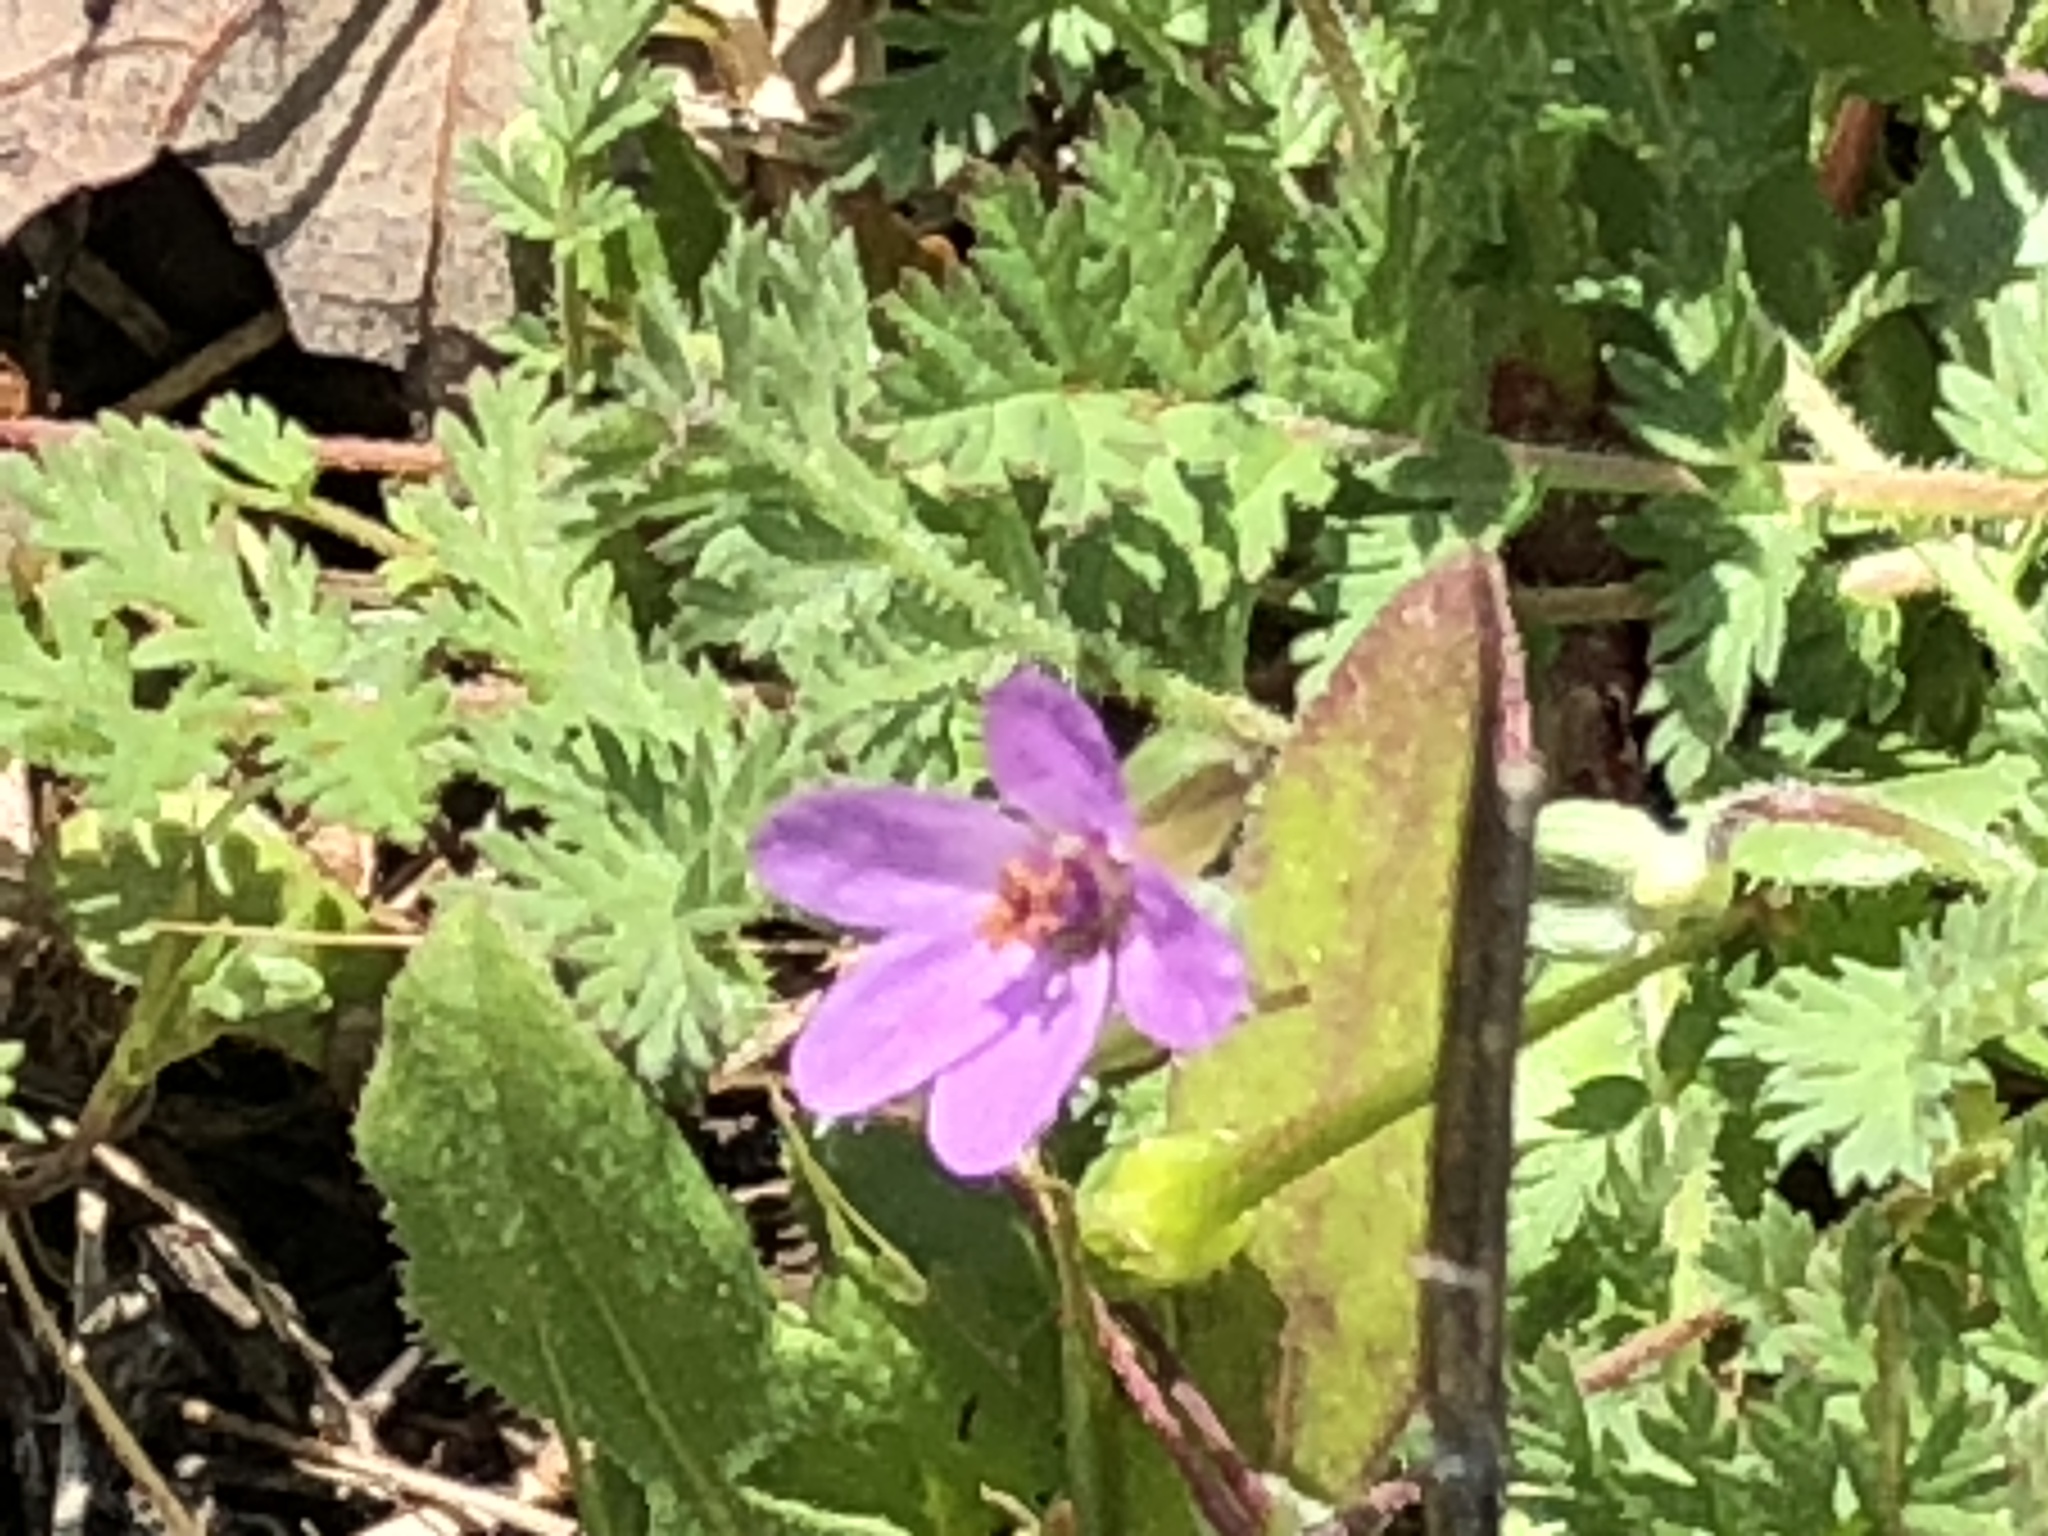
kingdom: Plantae
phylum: Tracheophyta
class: Magnoliopsida
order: Geraniales
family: Geraniaceae
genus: Erodium
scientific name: Erodium cicutarium
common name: Common stork's-bill
